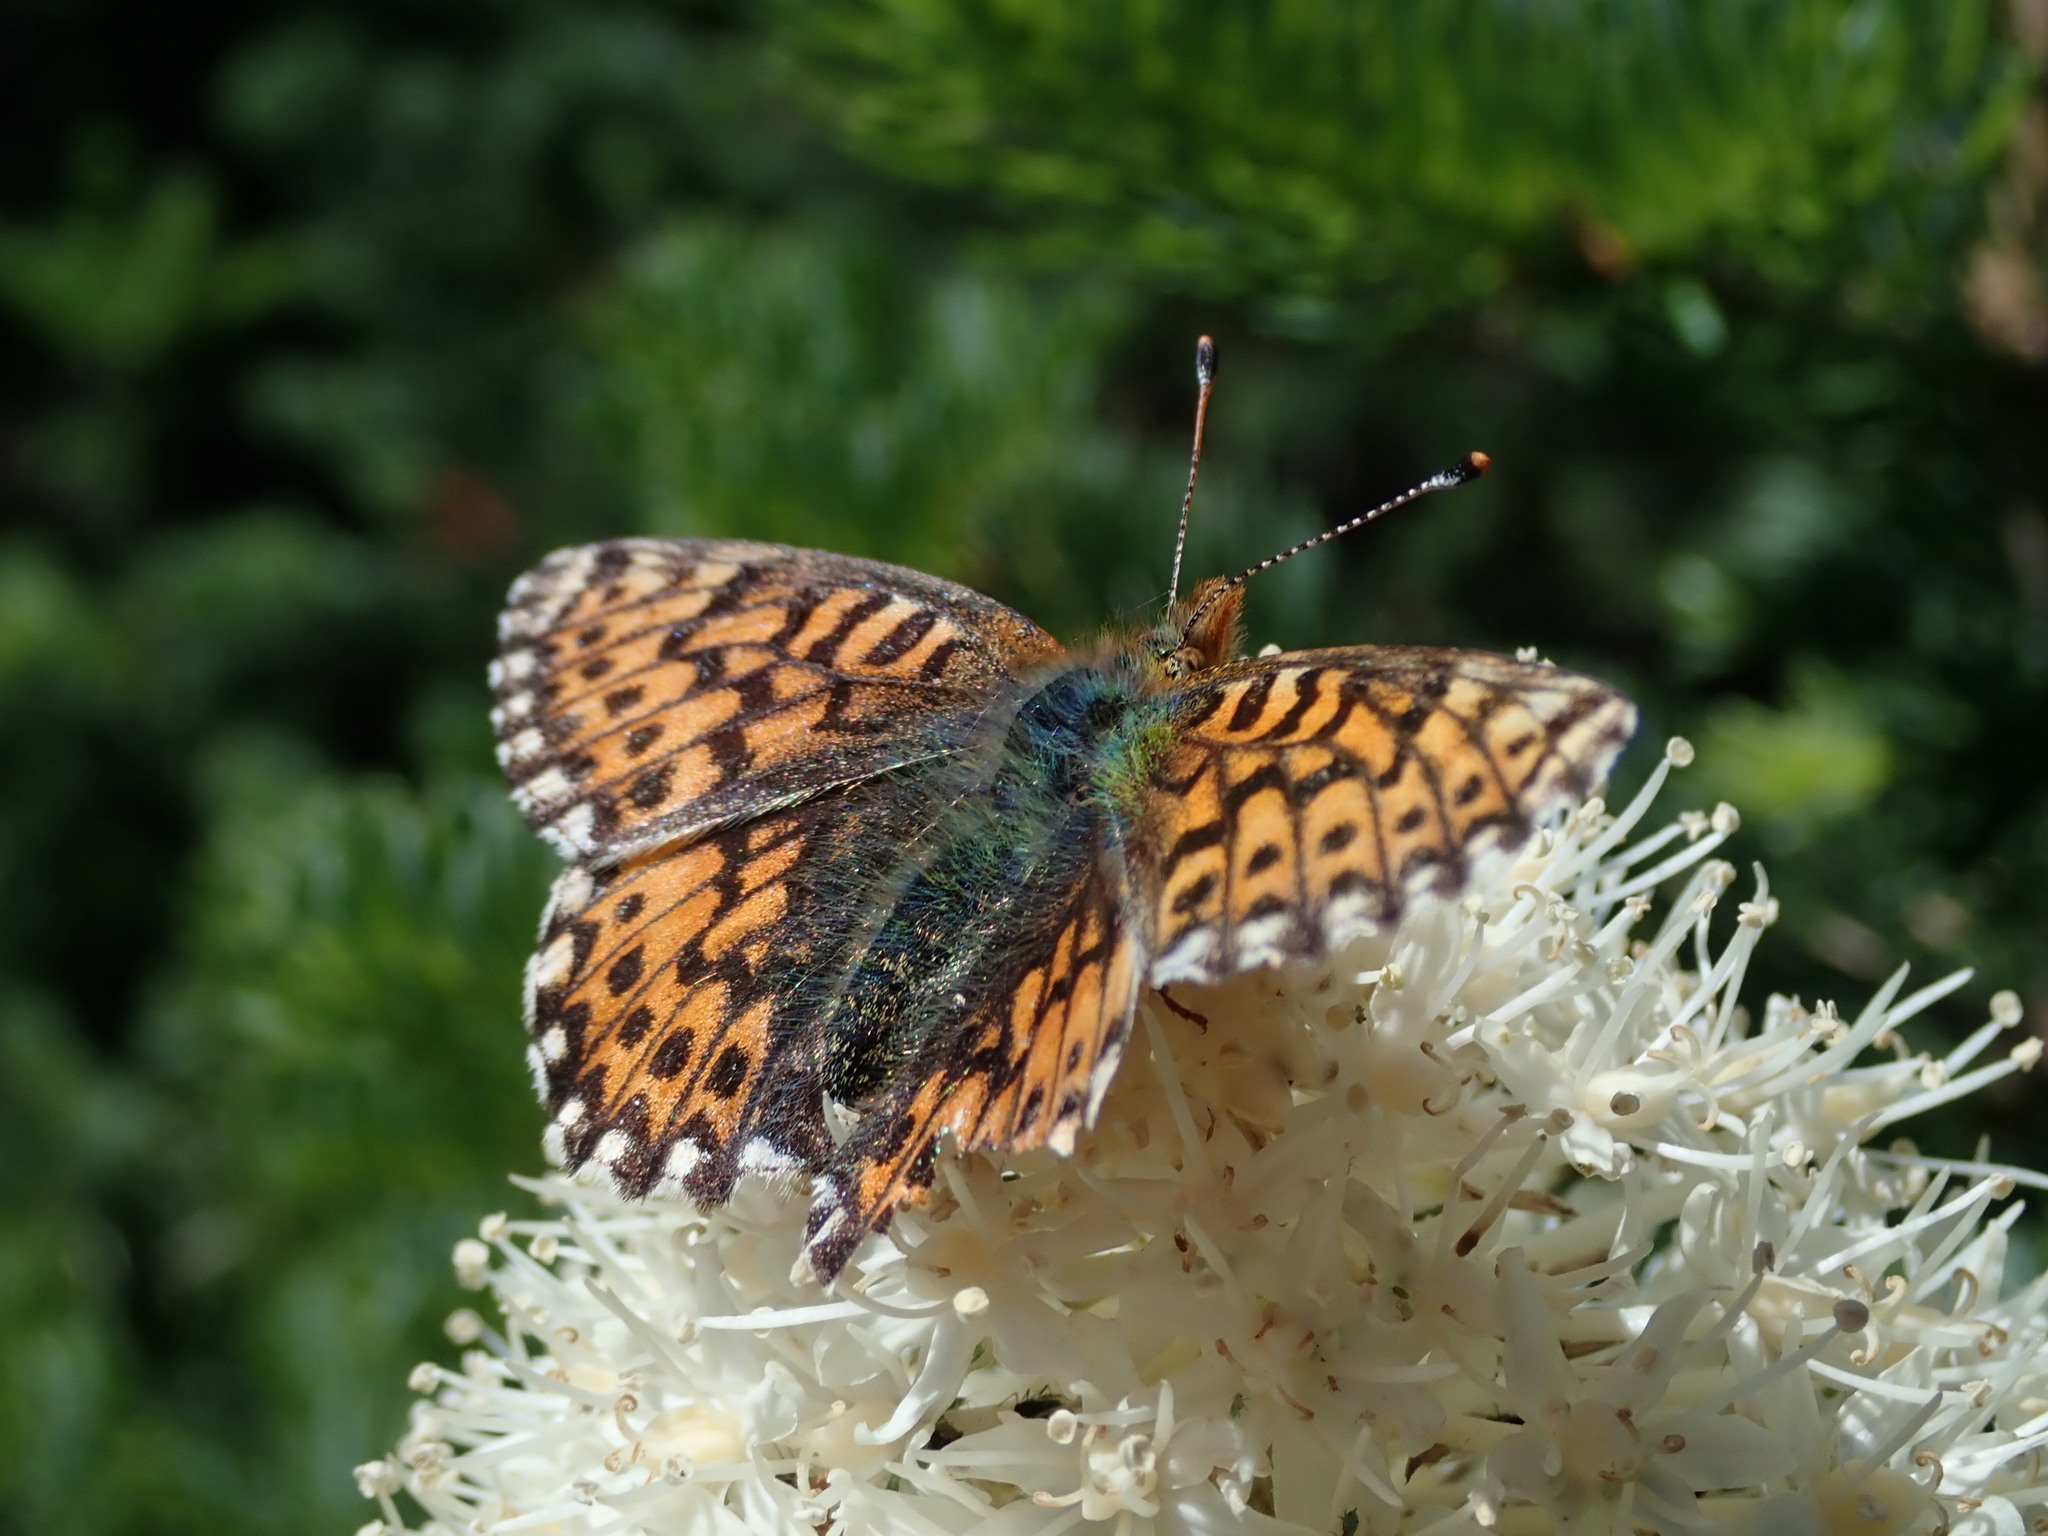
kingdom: Animalia
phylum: Arthropoda
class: Insecta
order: Lepidoptera
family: Nymphalidae
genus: Boloria
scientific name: Boloria chariclea
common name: Arctic fritillary
